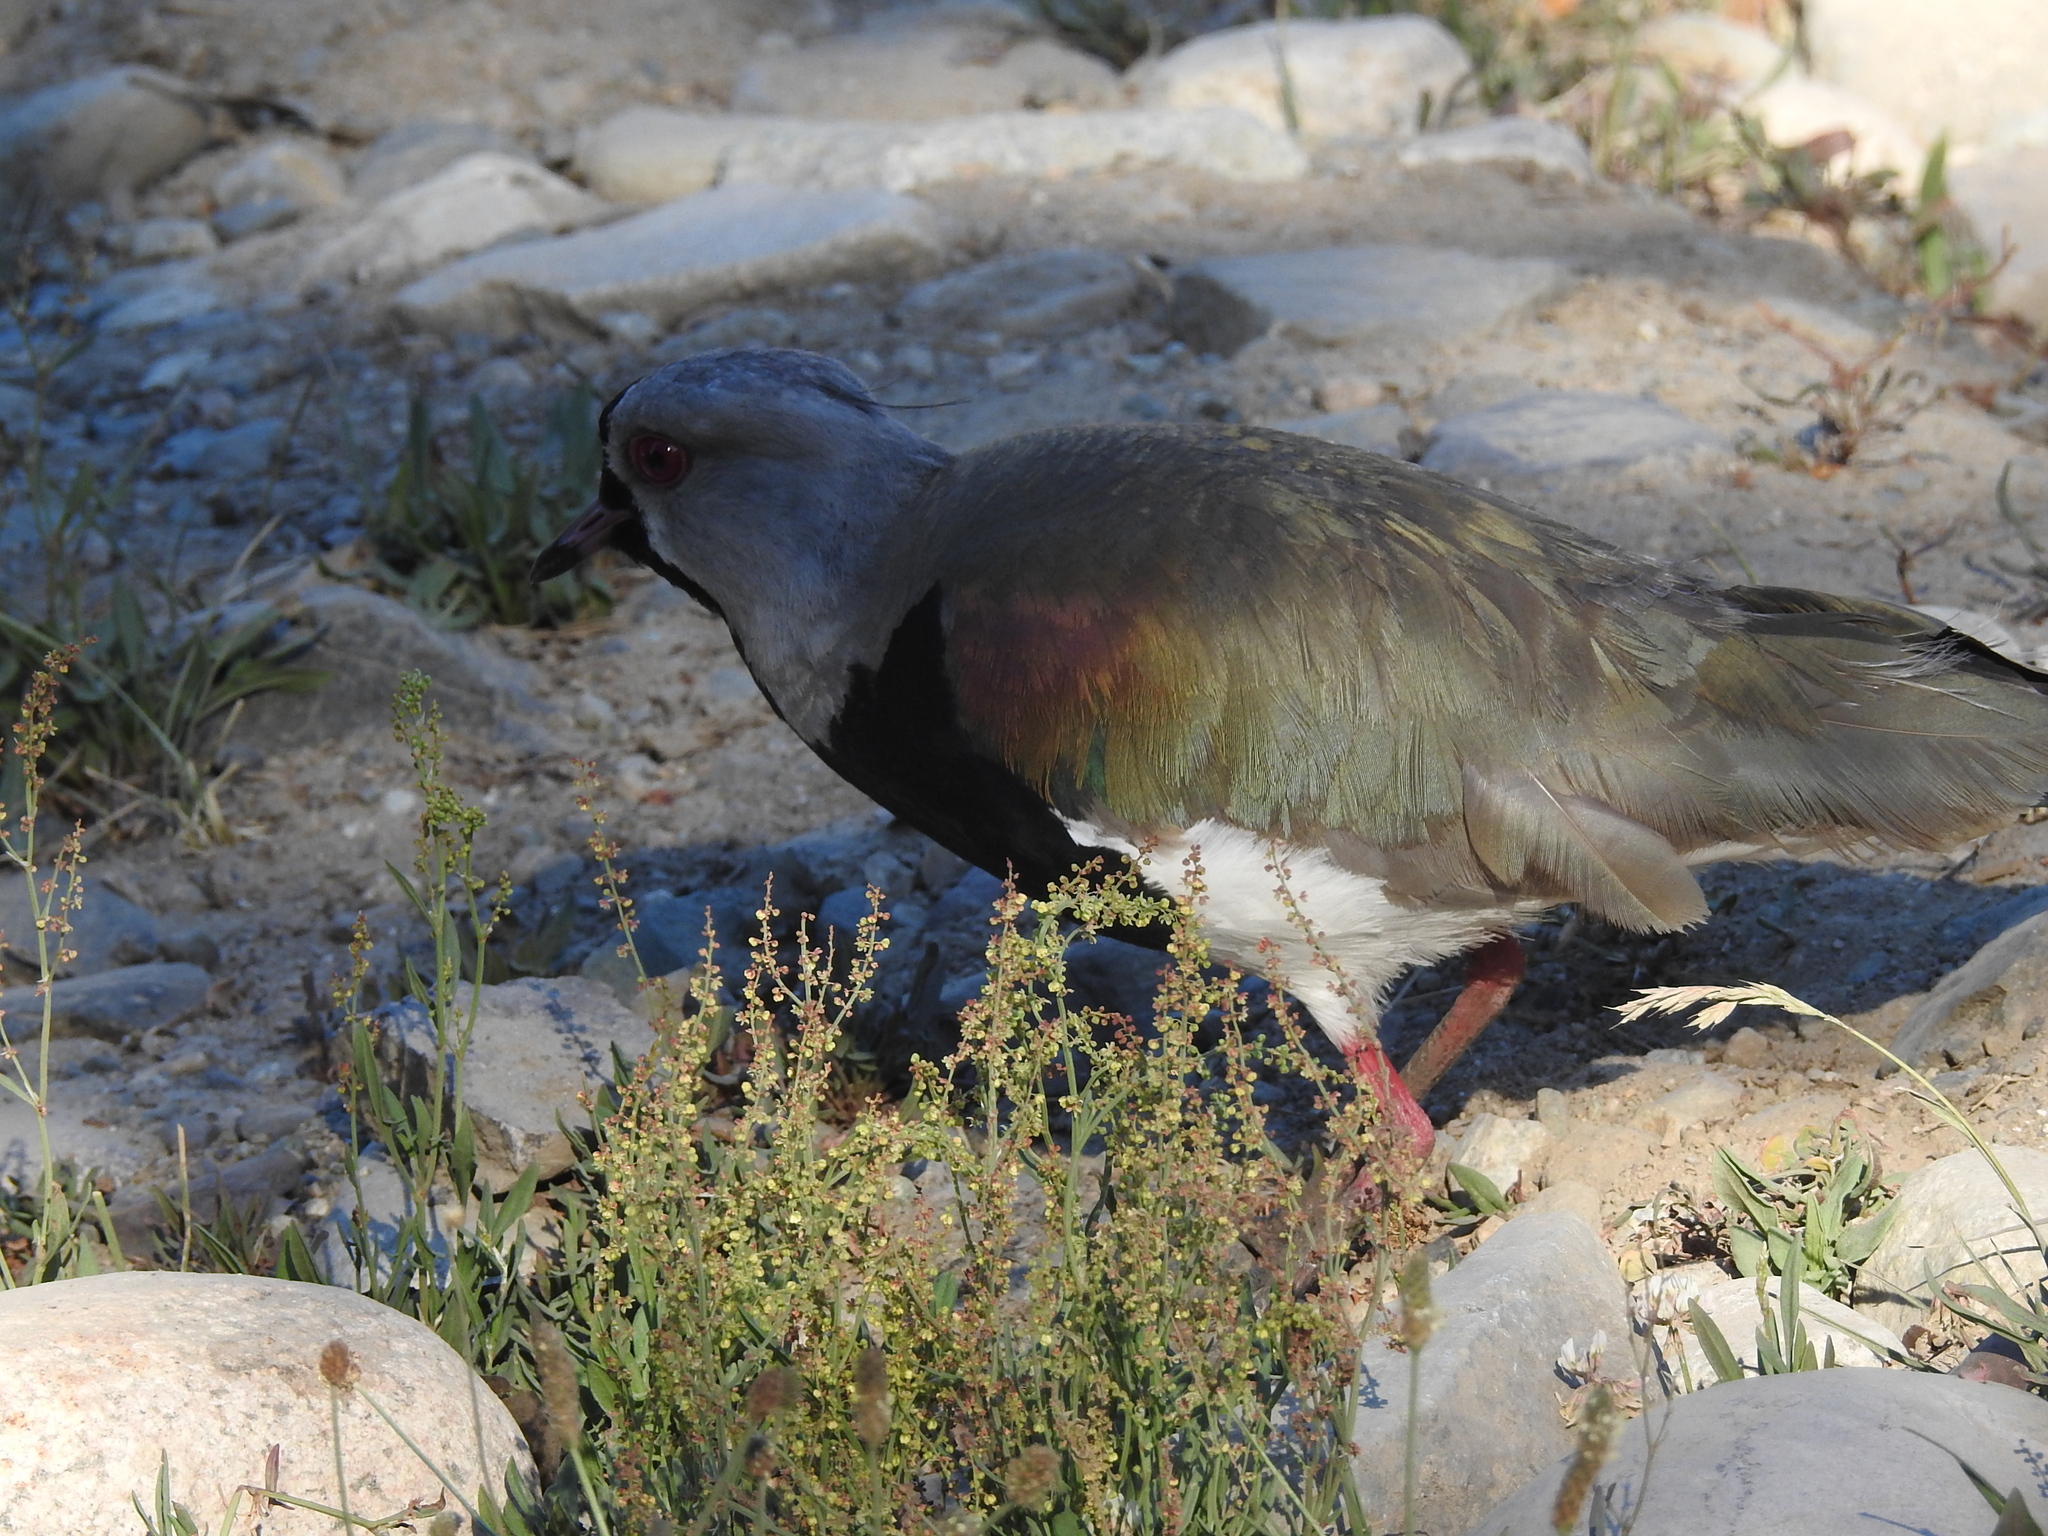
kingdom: Animalia
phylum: Chordata
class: Aves
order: Charadriiformes
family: Charadriidae
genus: Vanellus
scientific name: Vanellus chilensis
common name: Southern lapwing
